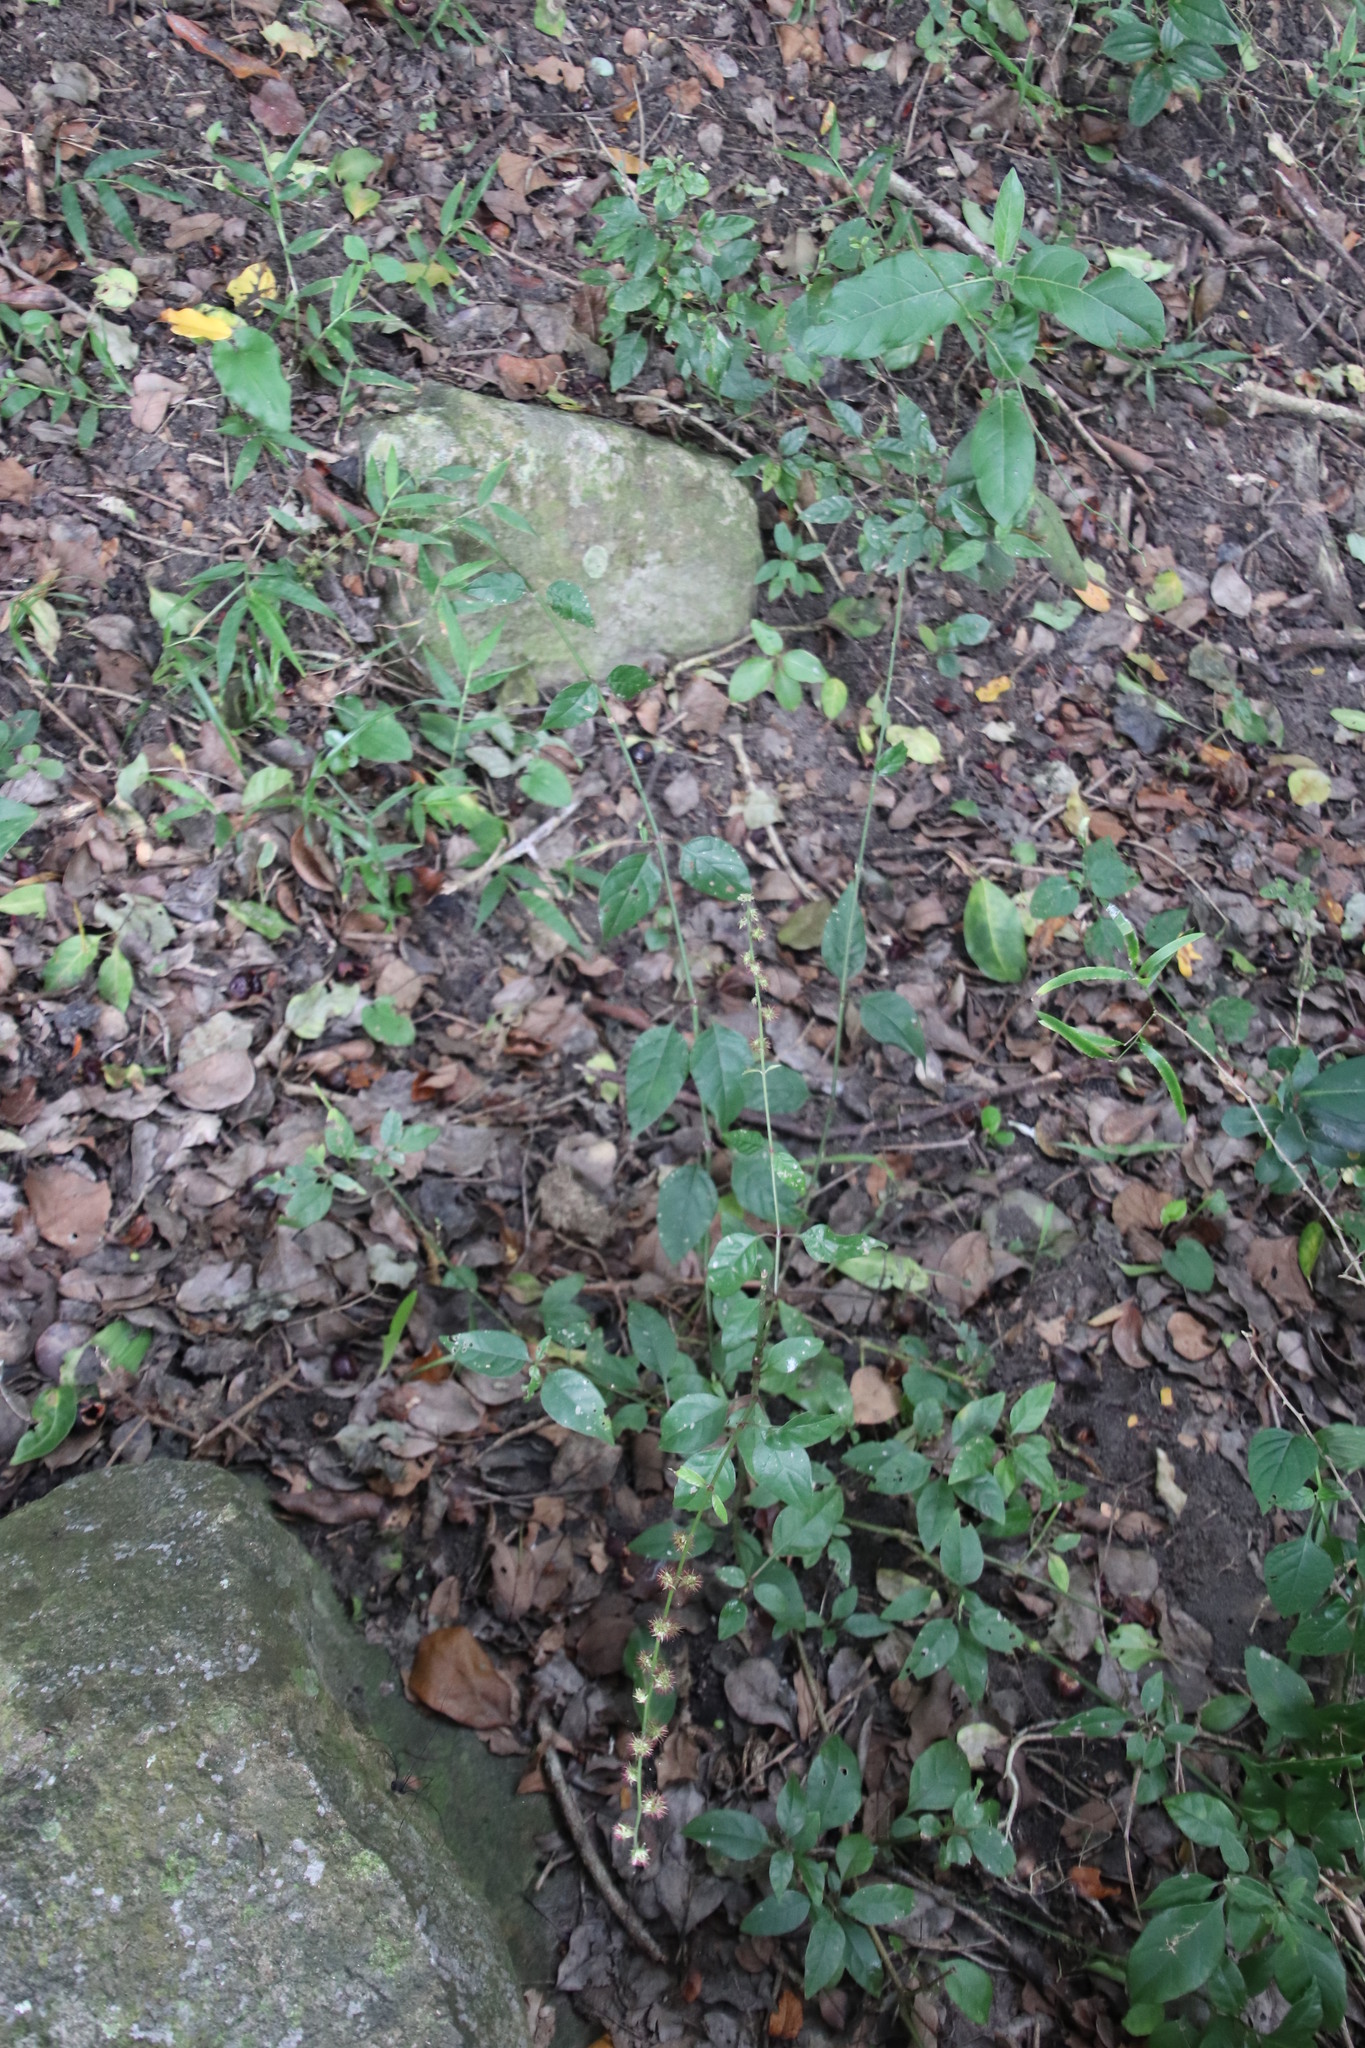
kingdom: Plantae
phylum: Tracheophyta
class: Magnoliopsida
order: Caryophyllales
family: Amaranthaceae
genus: Pupalia
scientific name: Pupalia lappacea
